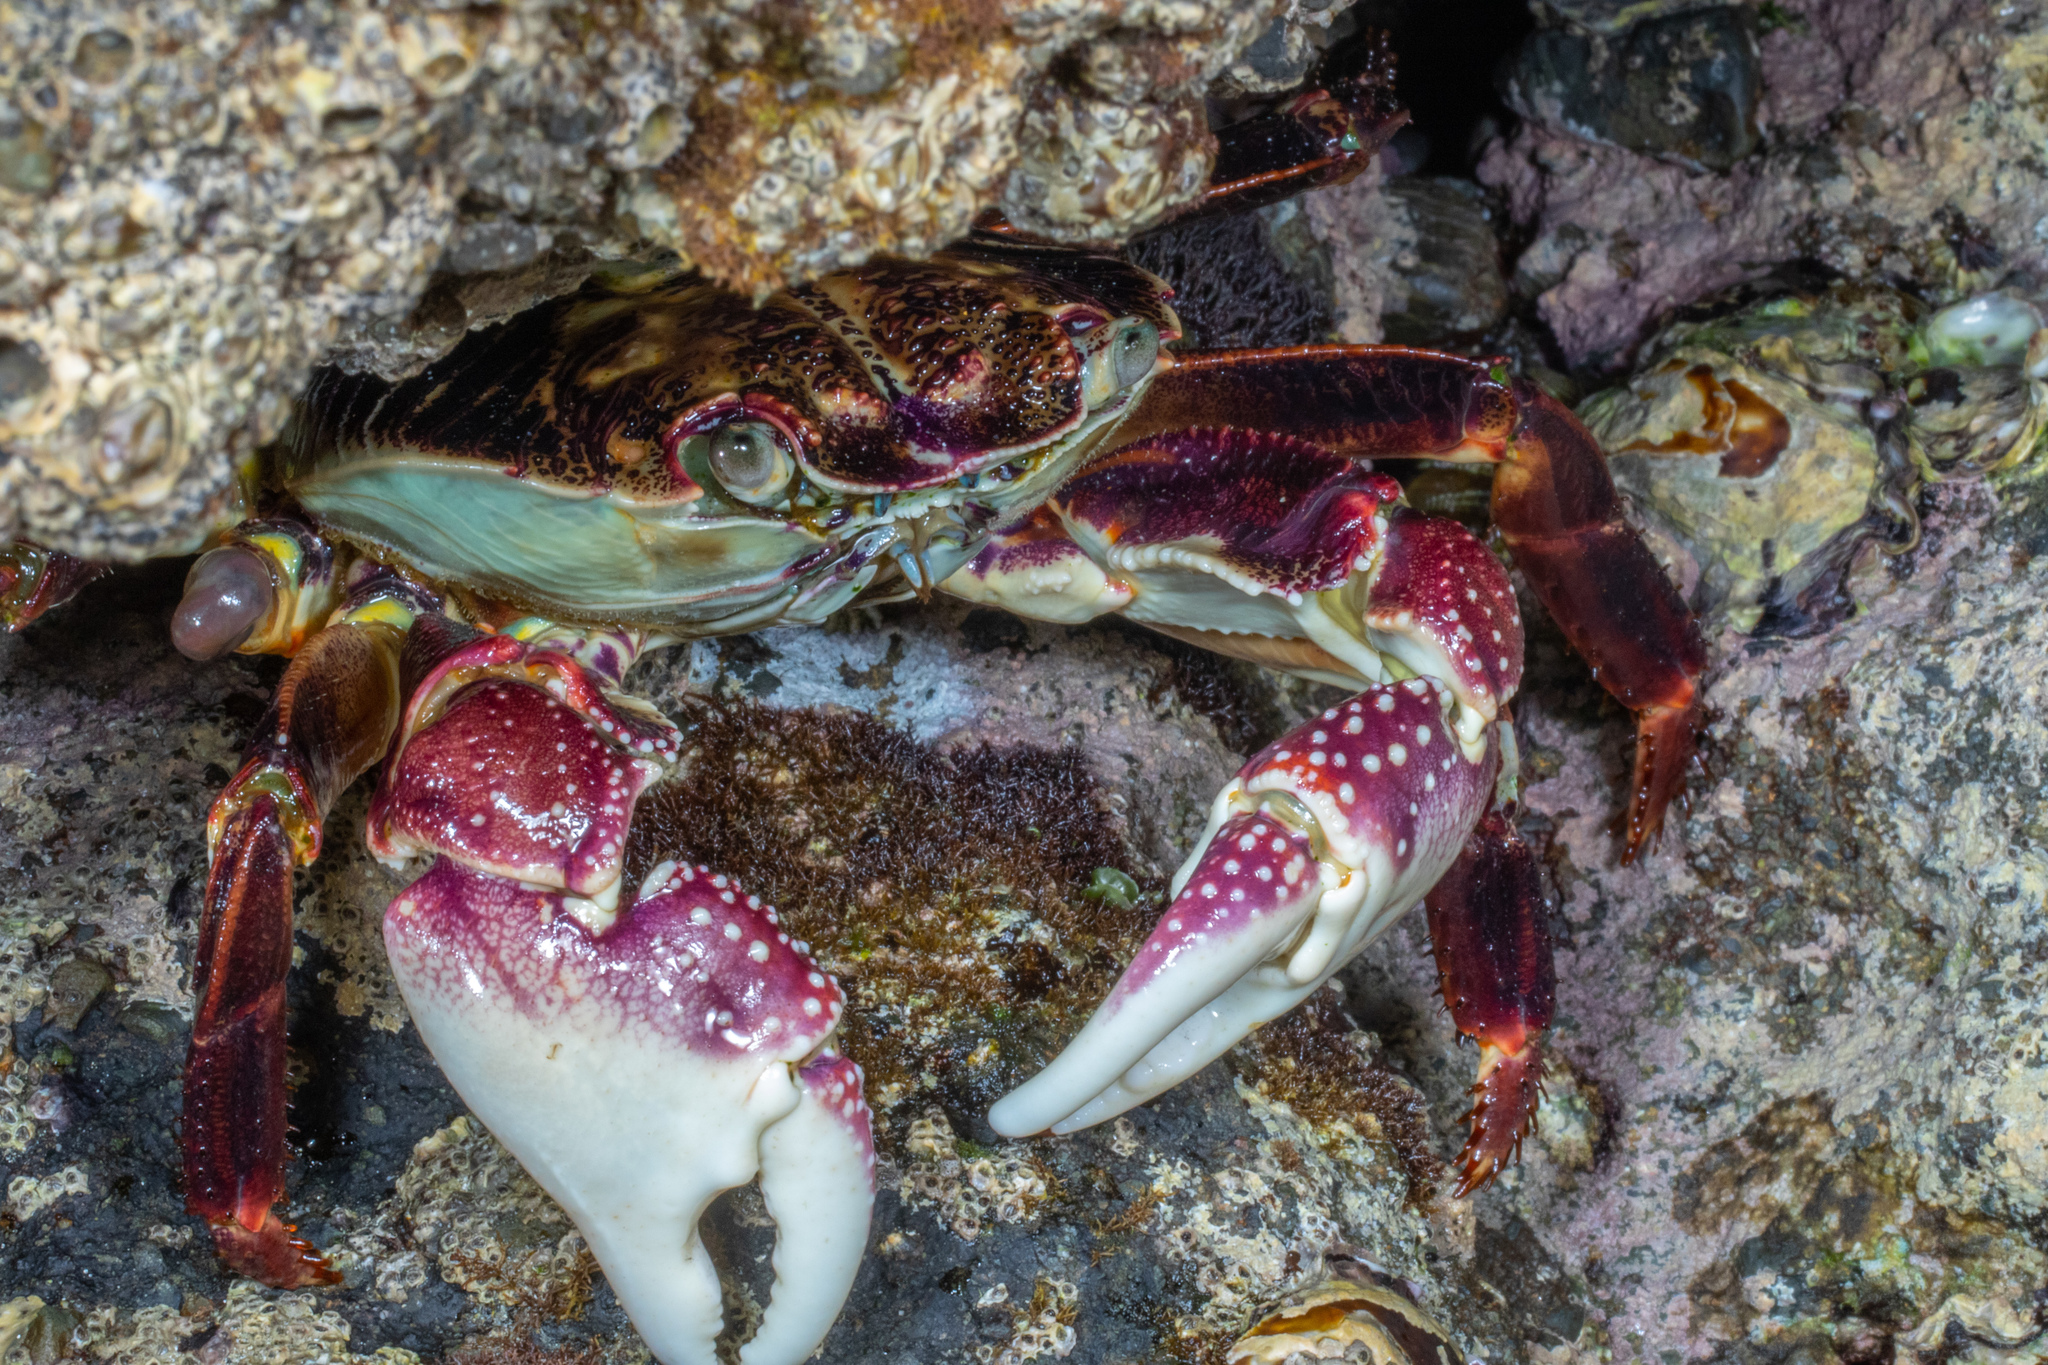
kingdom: Animalia
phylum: Arthropoda
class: Malacostraca
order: Decapoda
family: Grapsidae
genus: Leptograpsus
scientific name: Leptograpsus variegatus
